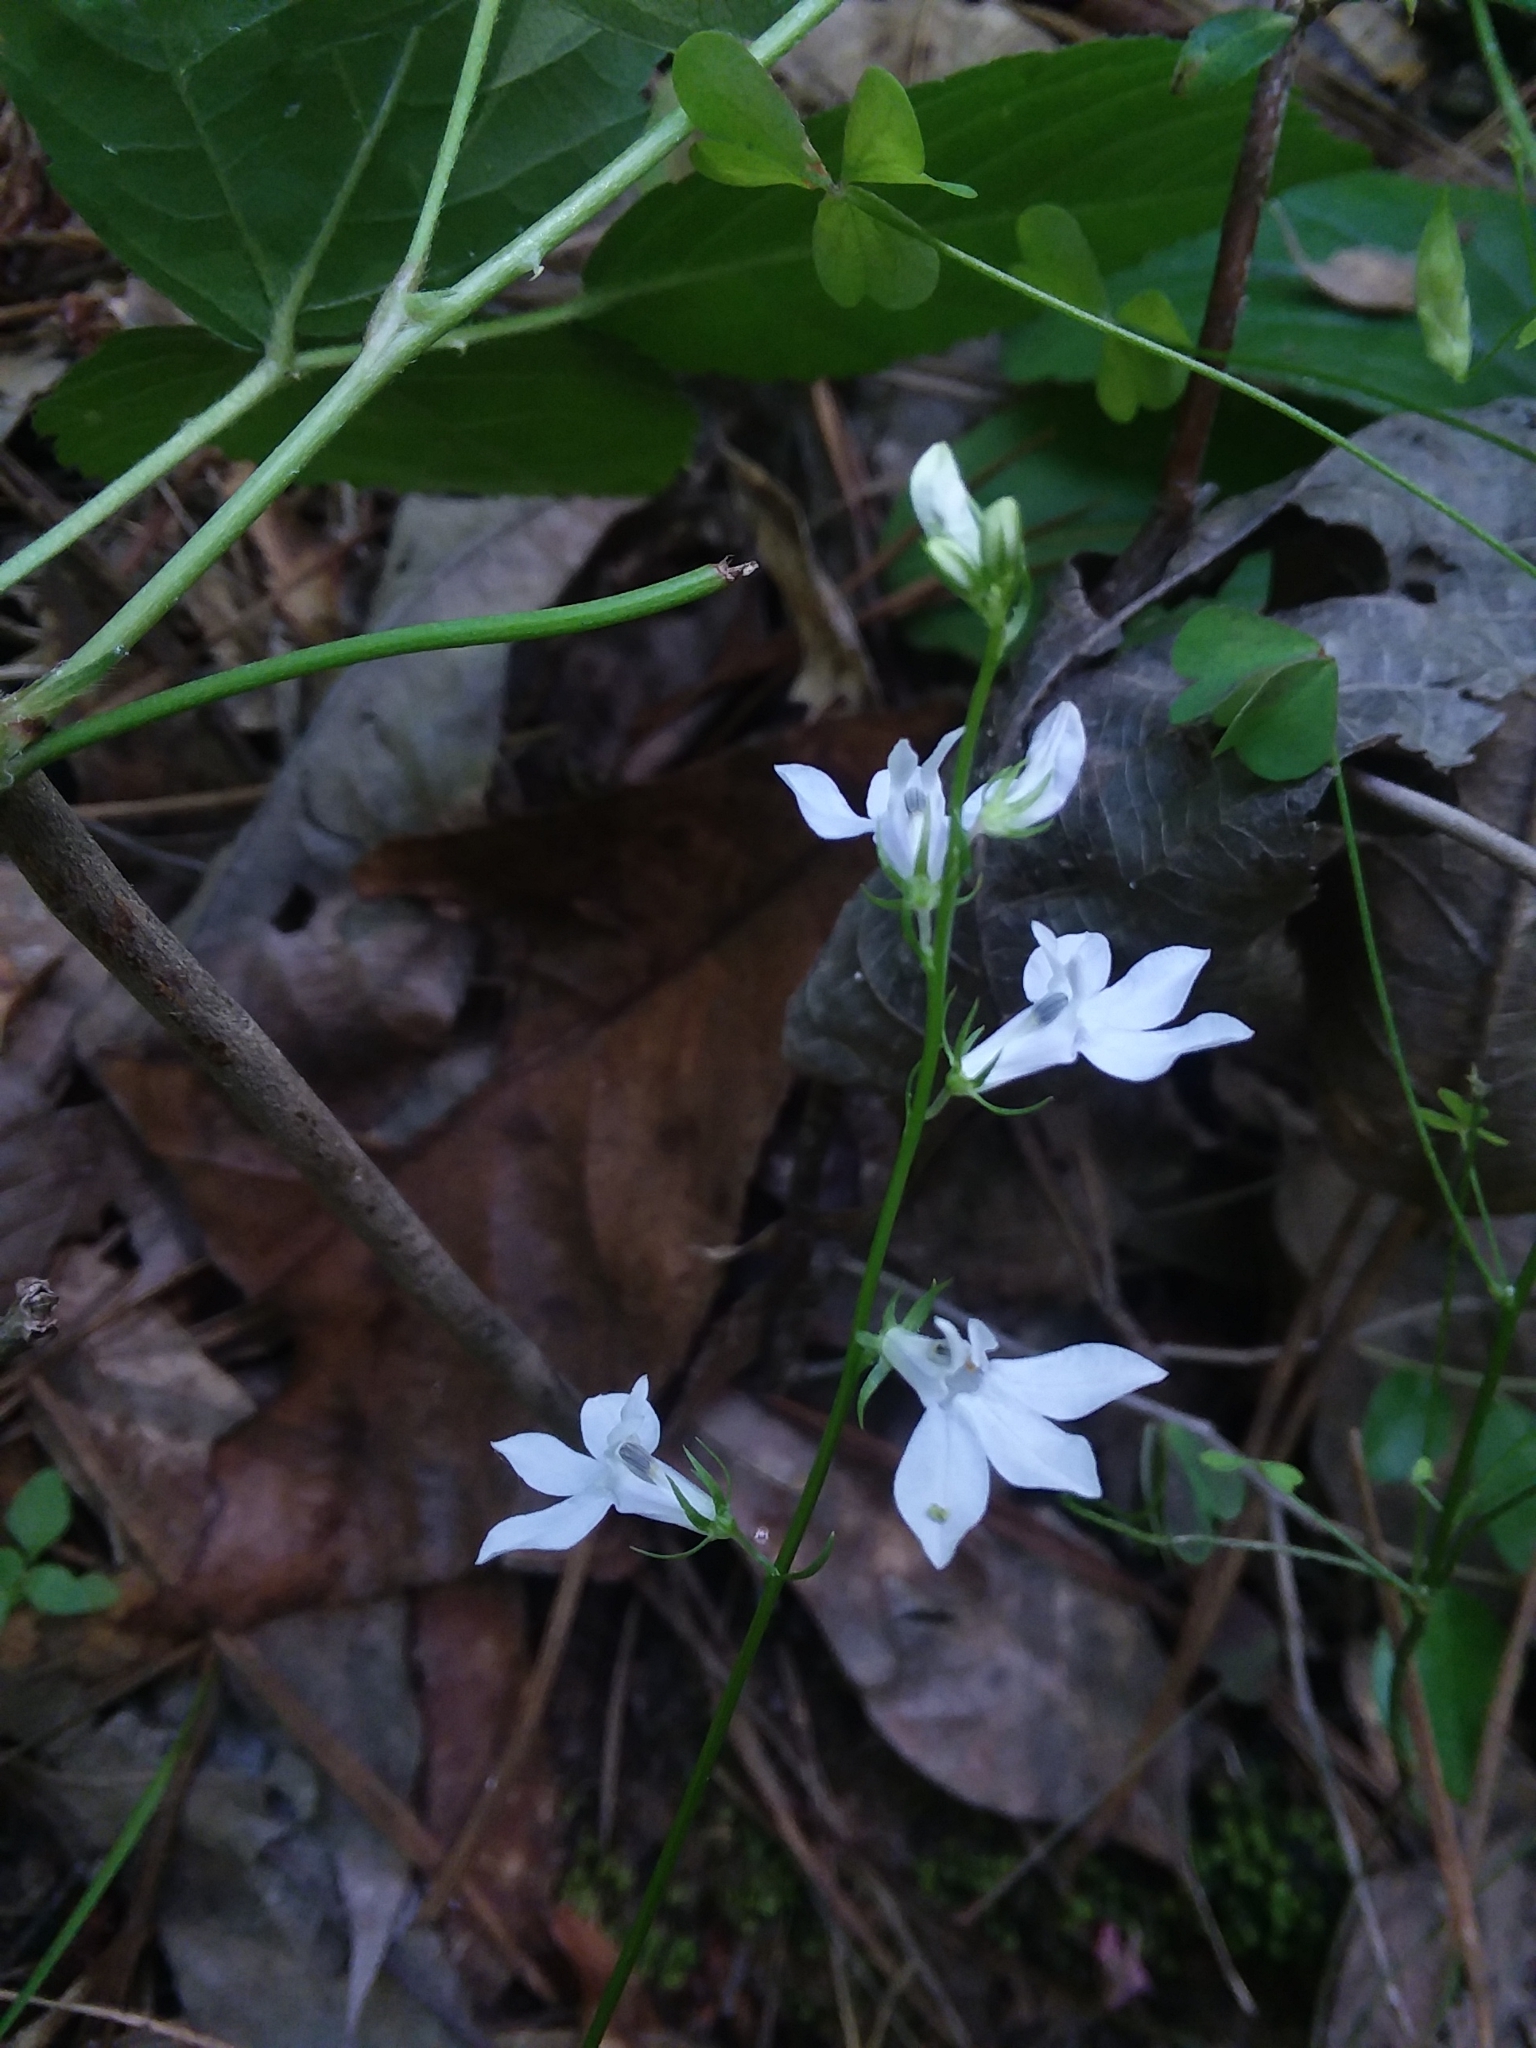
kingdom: Plantae
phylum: Tracheophyta
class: Magnoliopsida
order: Asterales
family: Campanulaceae
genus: Lobelia
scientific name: Lobelia appendiculata
